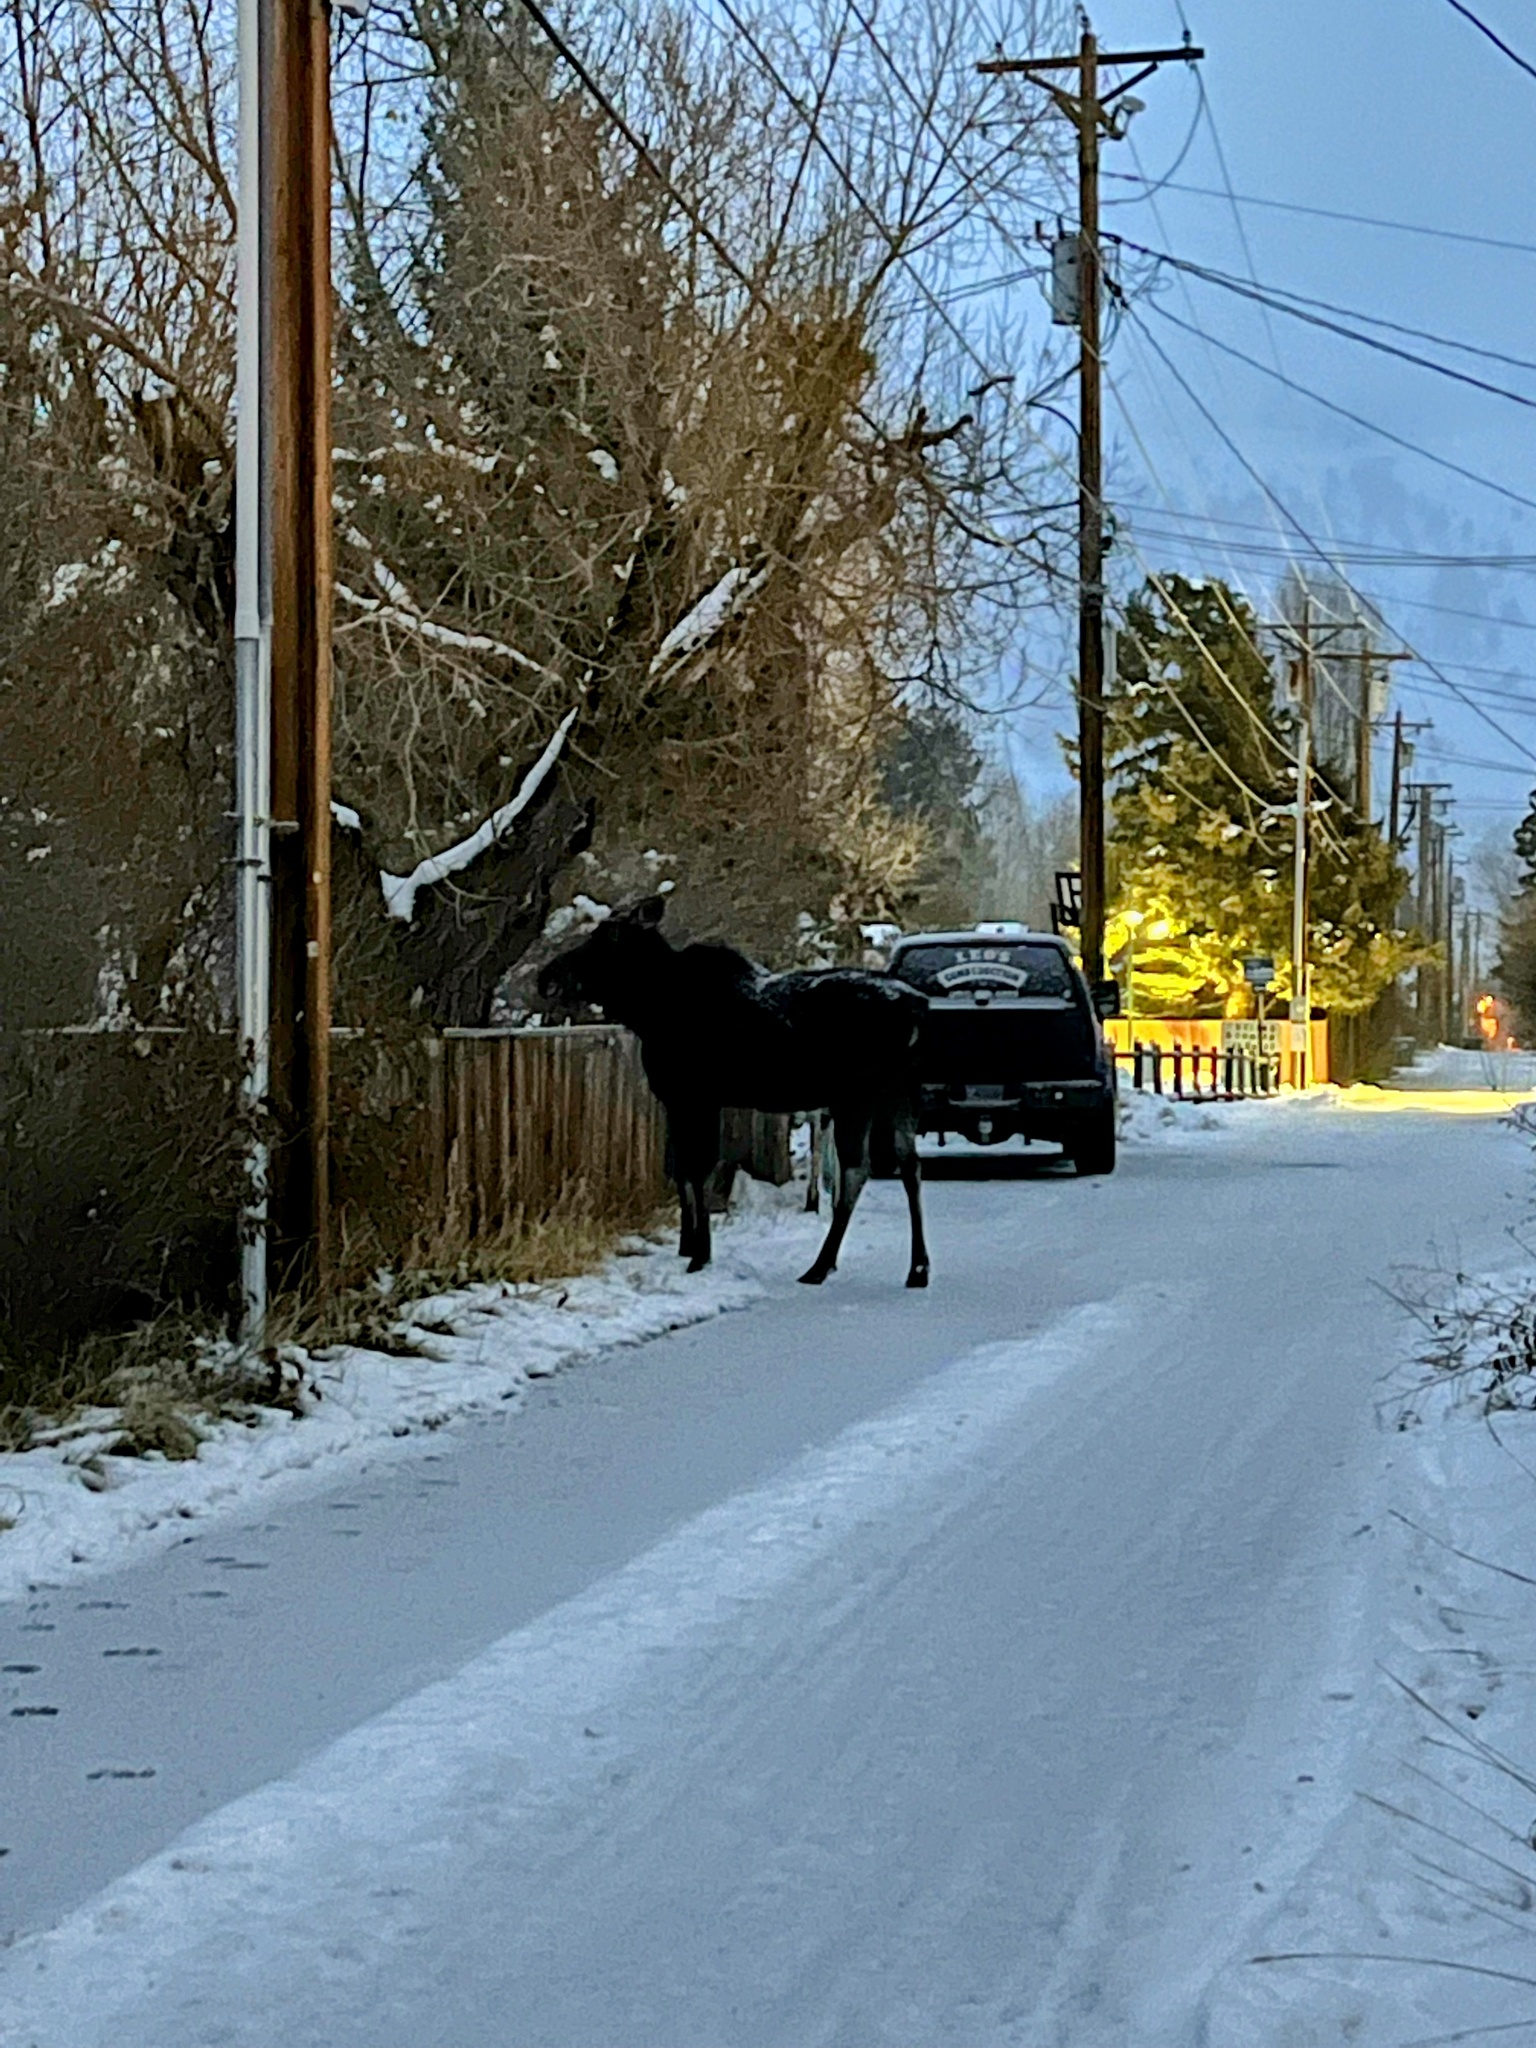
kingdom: Animalia
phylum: Chordata
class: Mammalia
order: Artiodactyla
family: Cervidae
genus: Alces
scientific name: Alces americanus
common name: Moose
